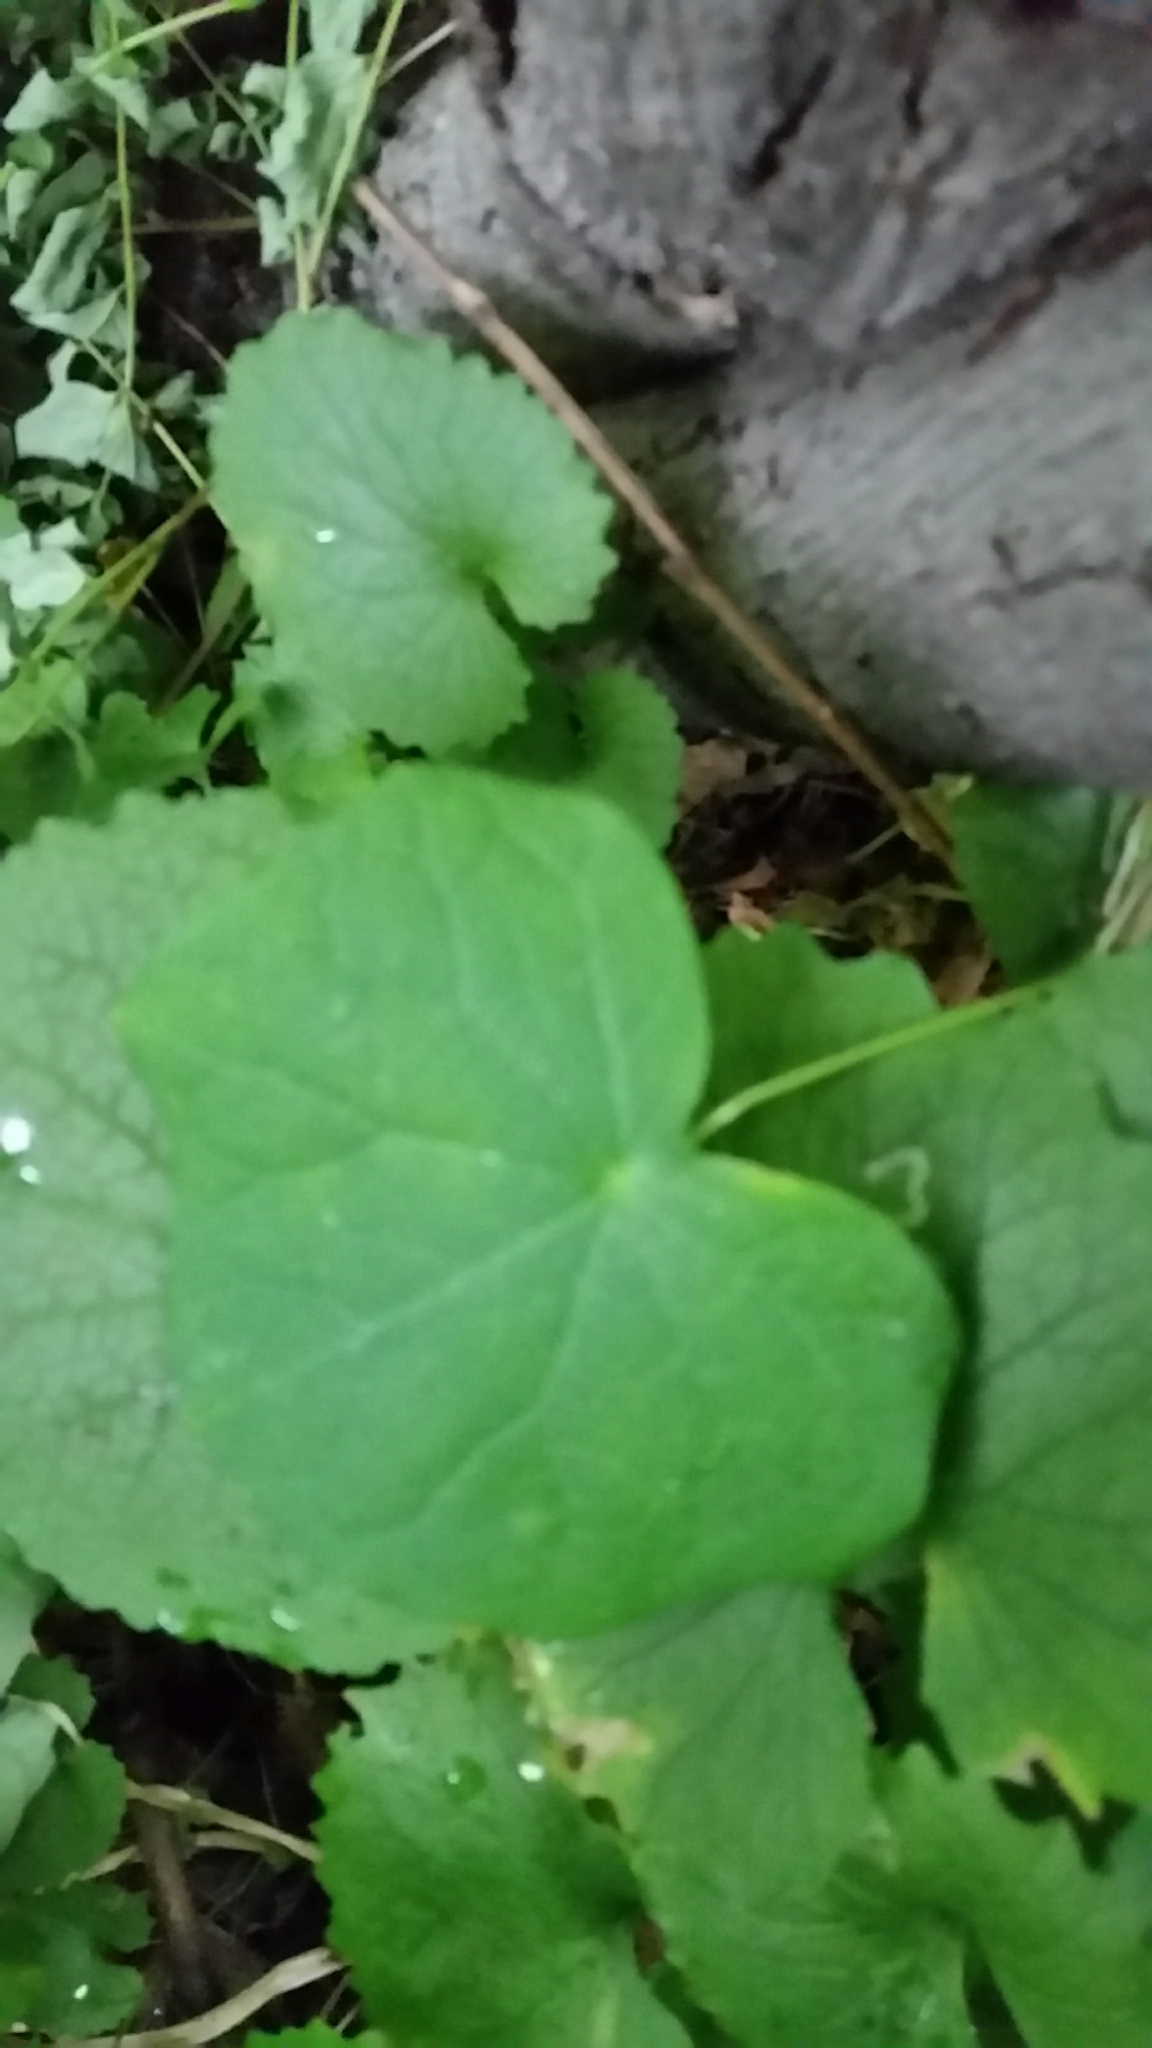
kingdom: Plantae
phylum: Tracheophyta
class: Magnoliopsida
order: Ranunculales
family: Menispermaceae
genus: Menispermum
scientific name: Menispermum canadense
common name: Moonseed
